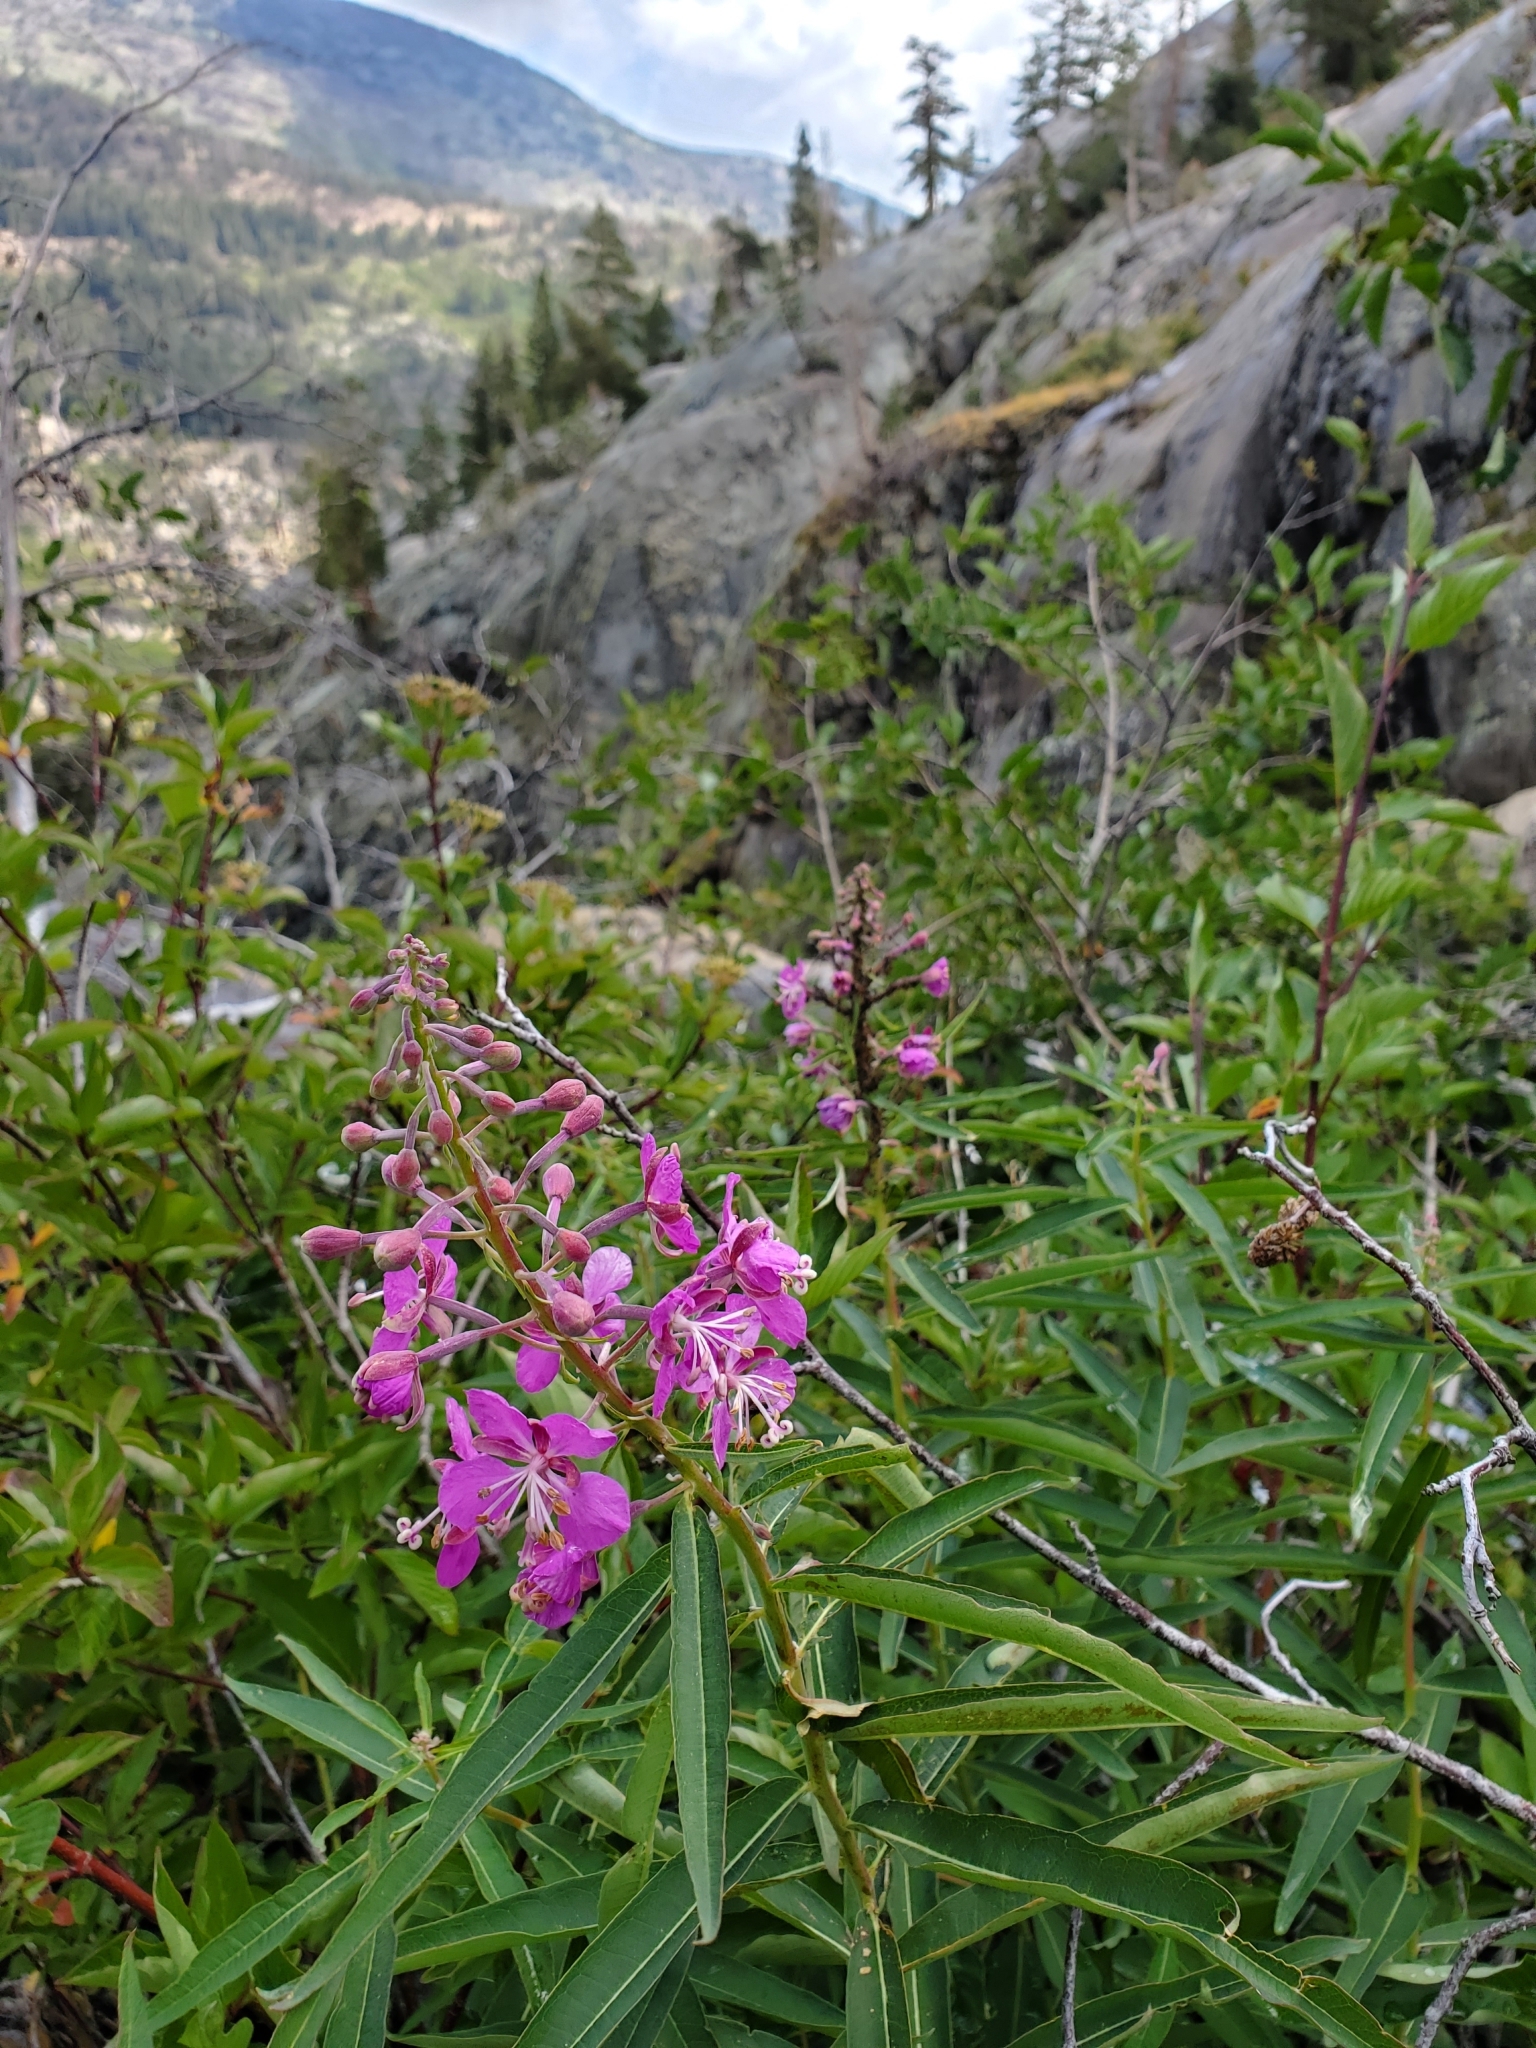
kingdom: Plantae
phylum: Tracheophyta
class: Magnoliopsida
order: Myrtales
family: Onagraceae
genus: Chamaenerion
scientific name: Chamaenerion angustifolium
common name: Fireweed
